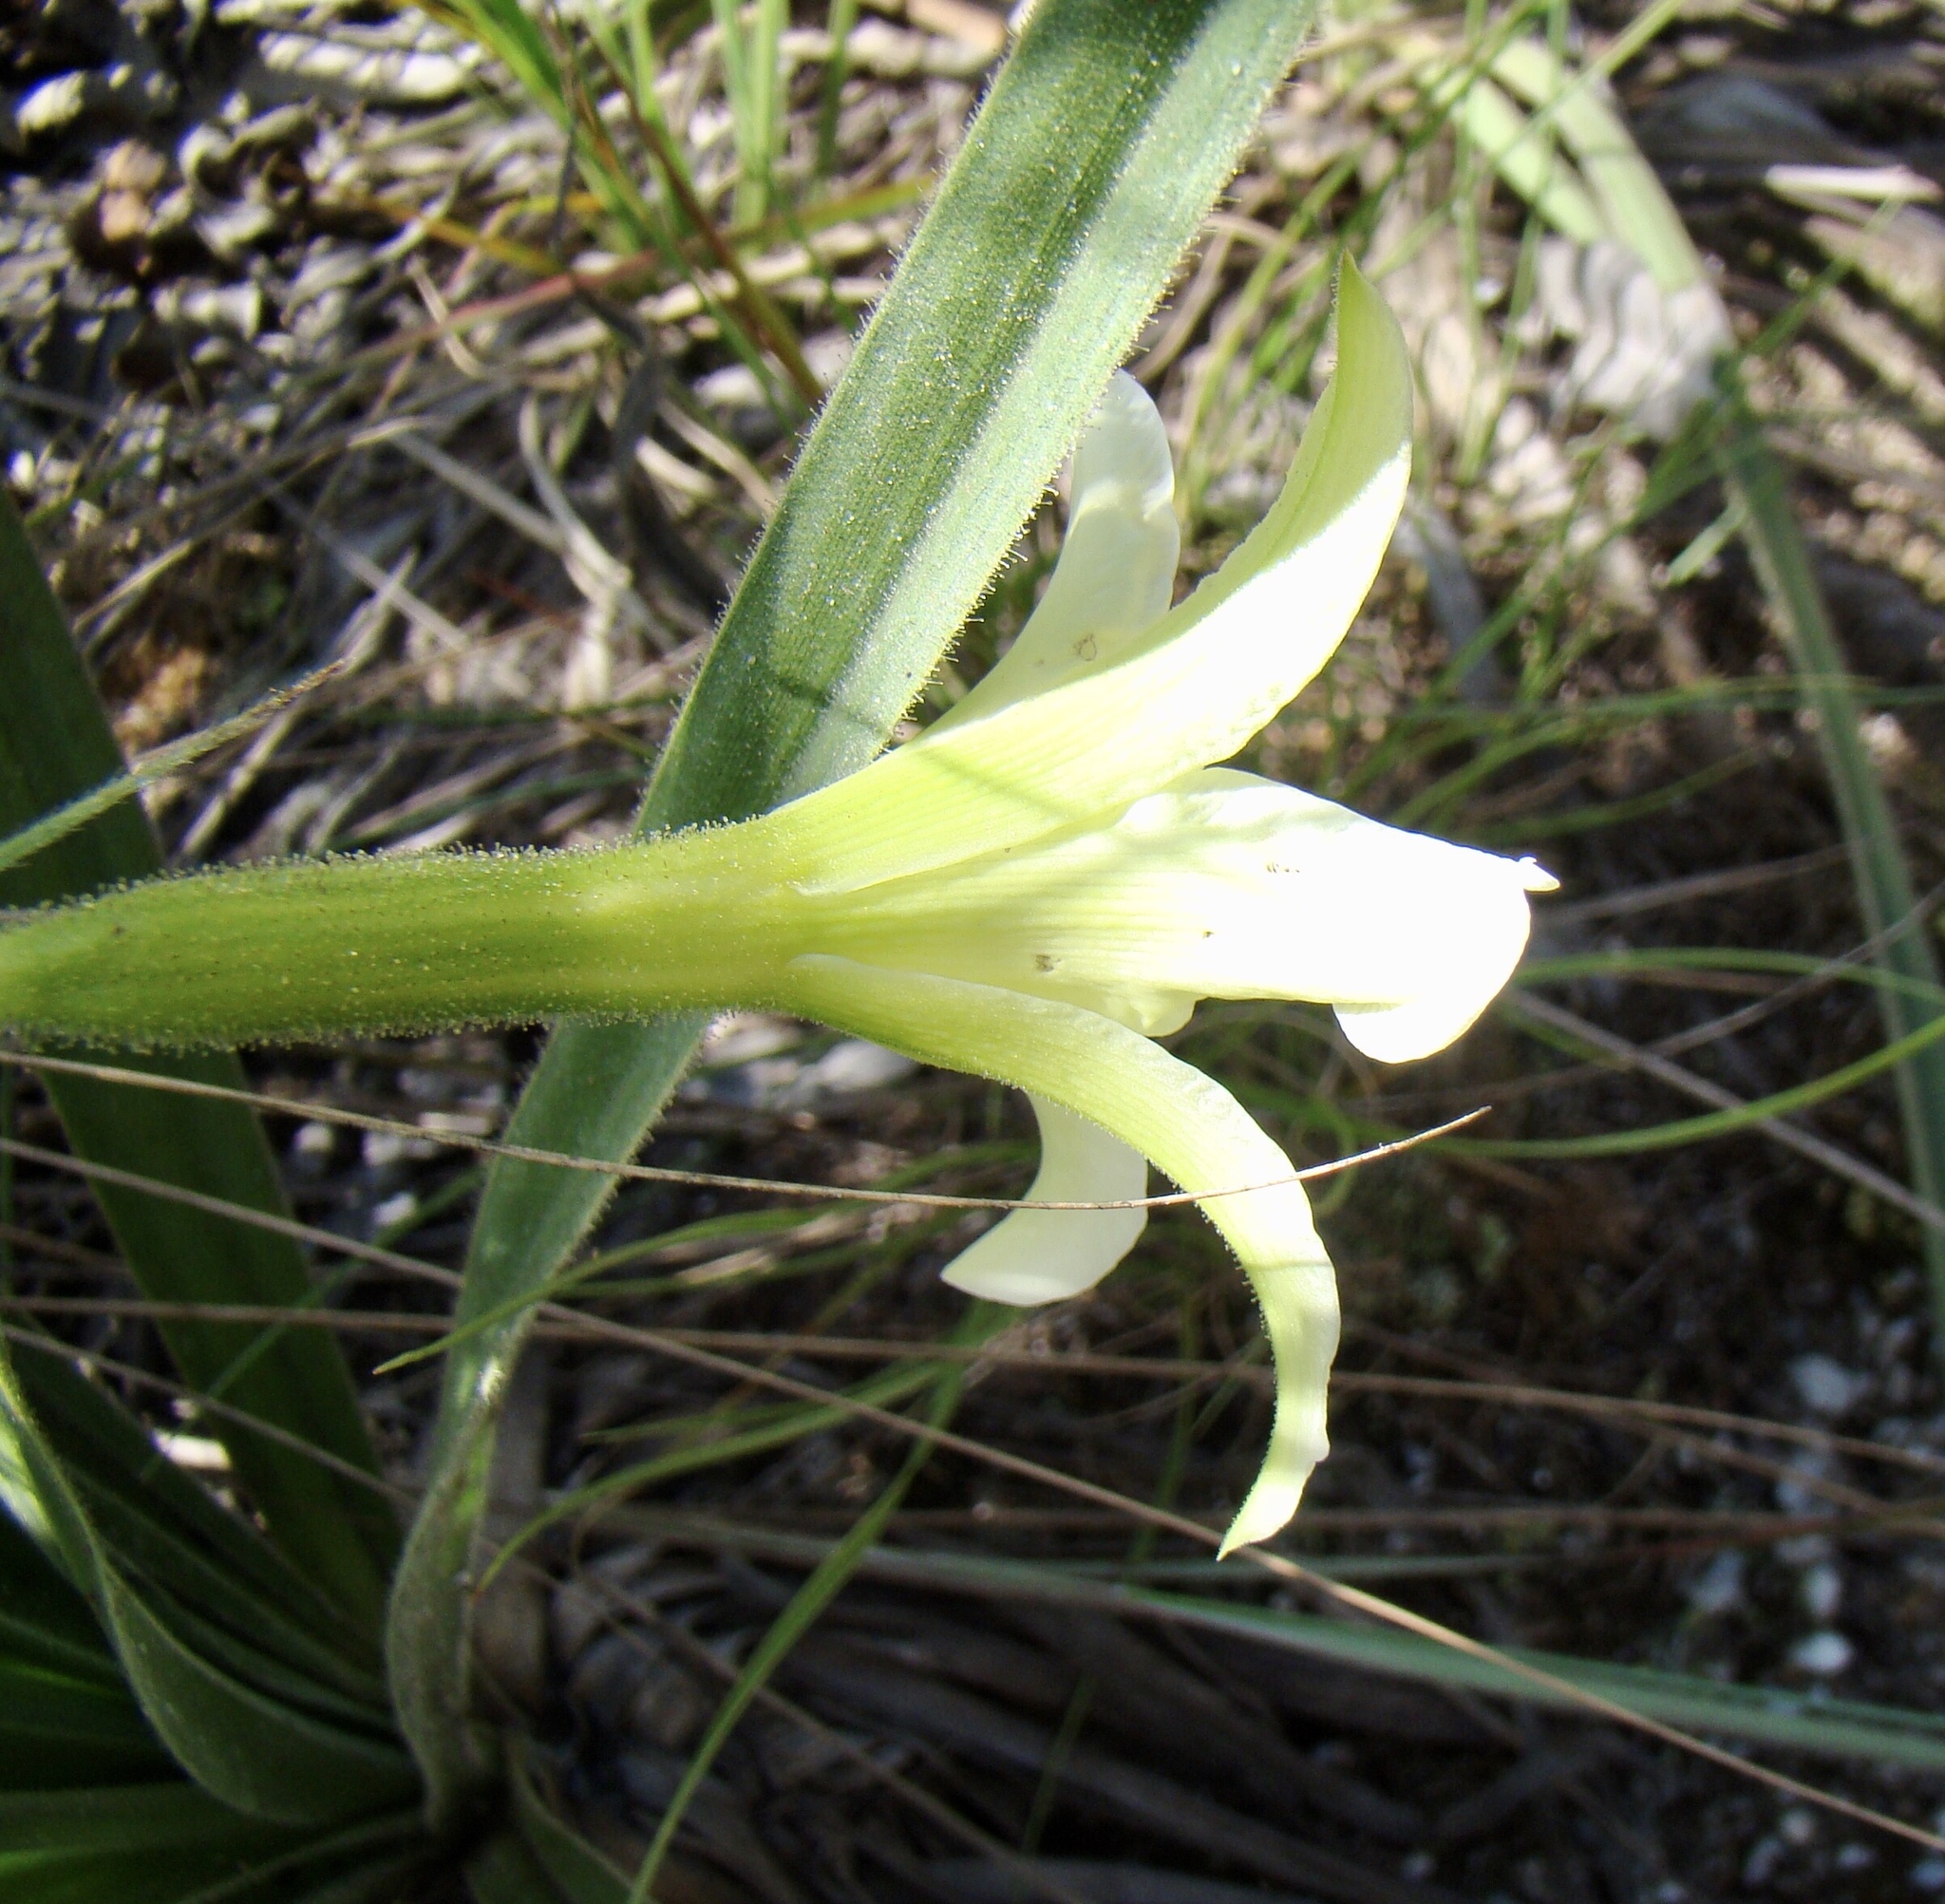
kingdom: Plantae
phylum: Tracheophyta
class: Liliopsida
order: Pandanales
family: Velloziaceae
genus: Barbacenia
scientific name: Barbacenia lymansmithii
